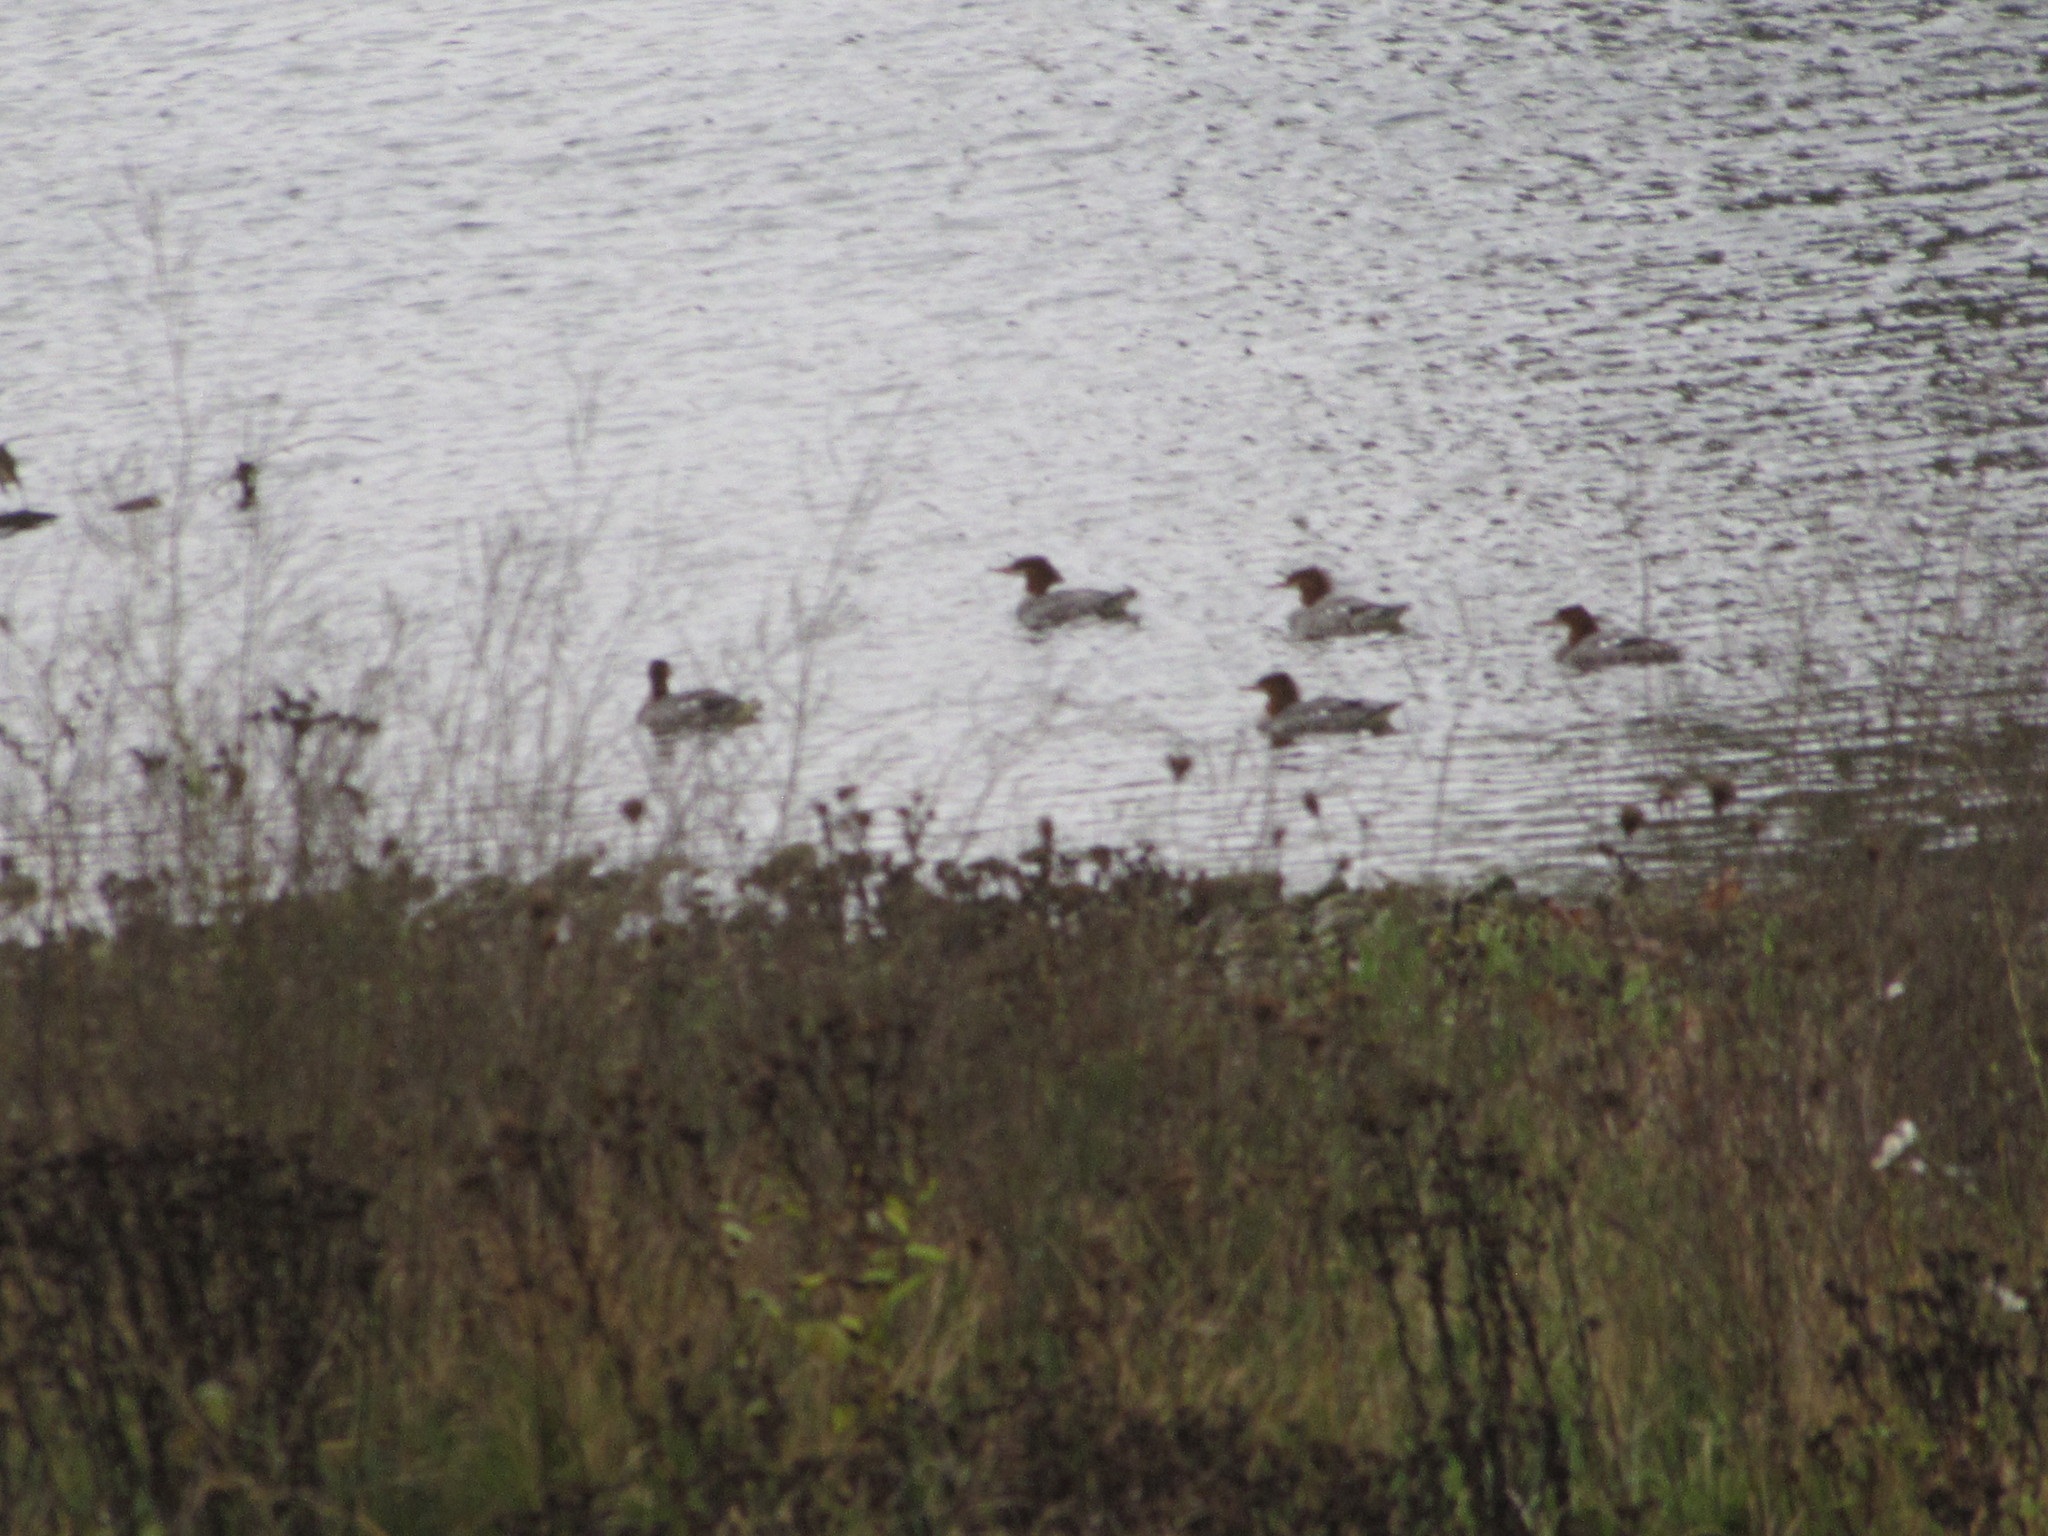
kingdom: Animalia
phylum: Chordata
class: Aves
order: Anseriformes
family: Anatidae
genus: Mergus
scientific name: Mergus merganser
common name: Common merganser
